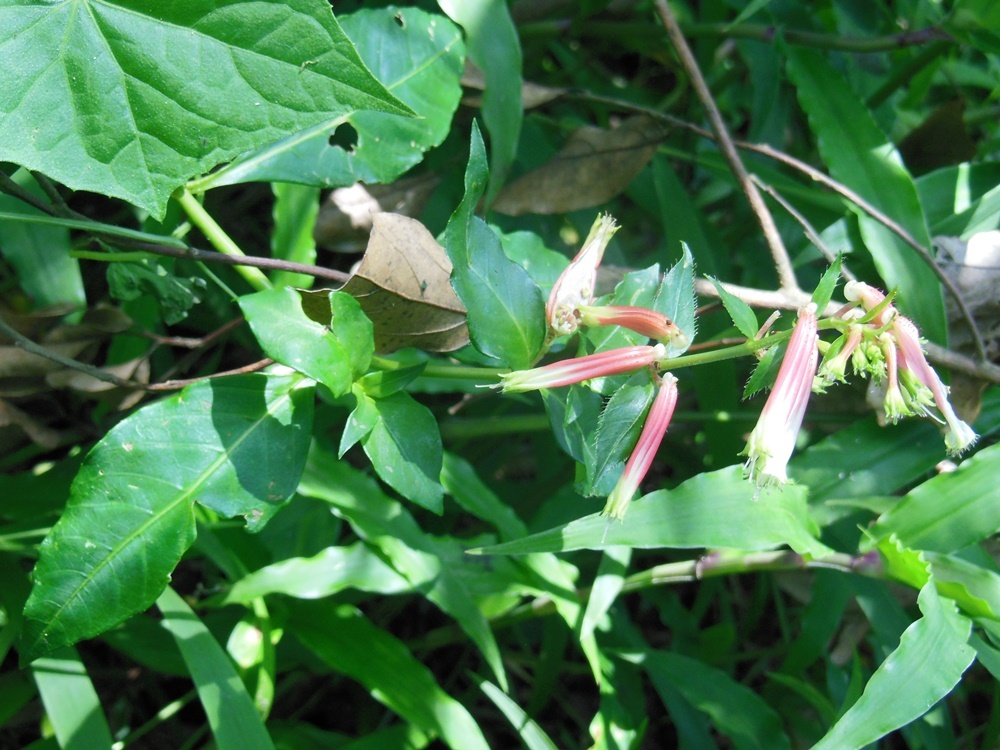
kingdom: Plantae
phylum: Tracheophyta
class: Magnoliopsida
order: Myrtales
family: Lythraceae
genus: Cuphea
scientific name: Cuphea subuligera
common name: Mauve cuphea
